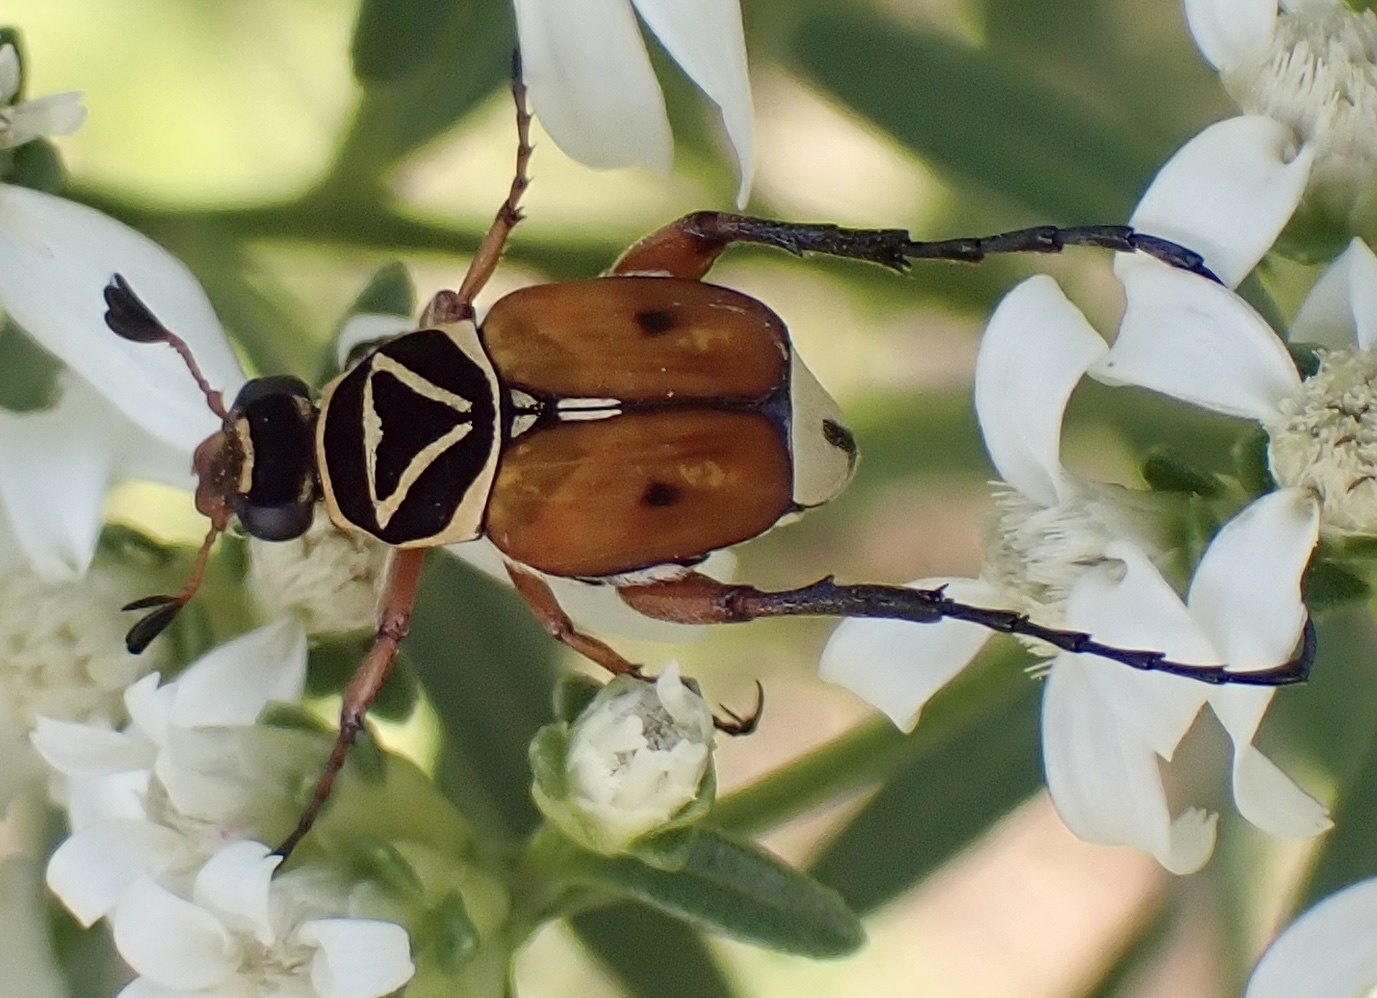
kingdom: Animalia
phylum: Arthropoda
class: Insecta
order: Coleoptera
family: Scarabaeidae
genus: Trigonopeltastes
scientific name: Trigonopeltastes delta
